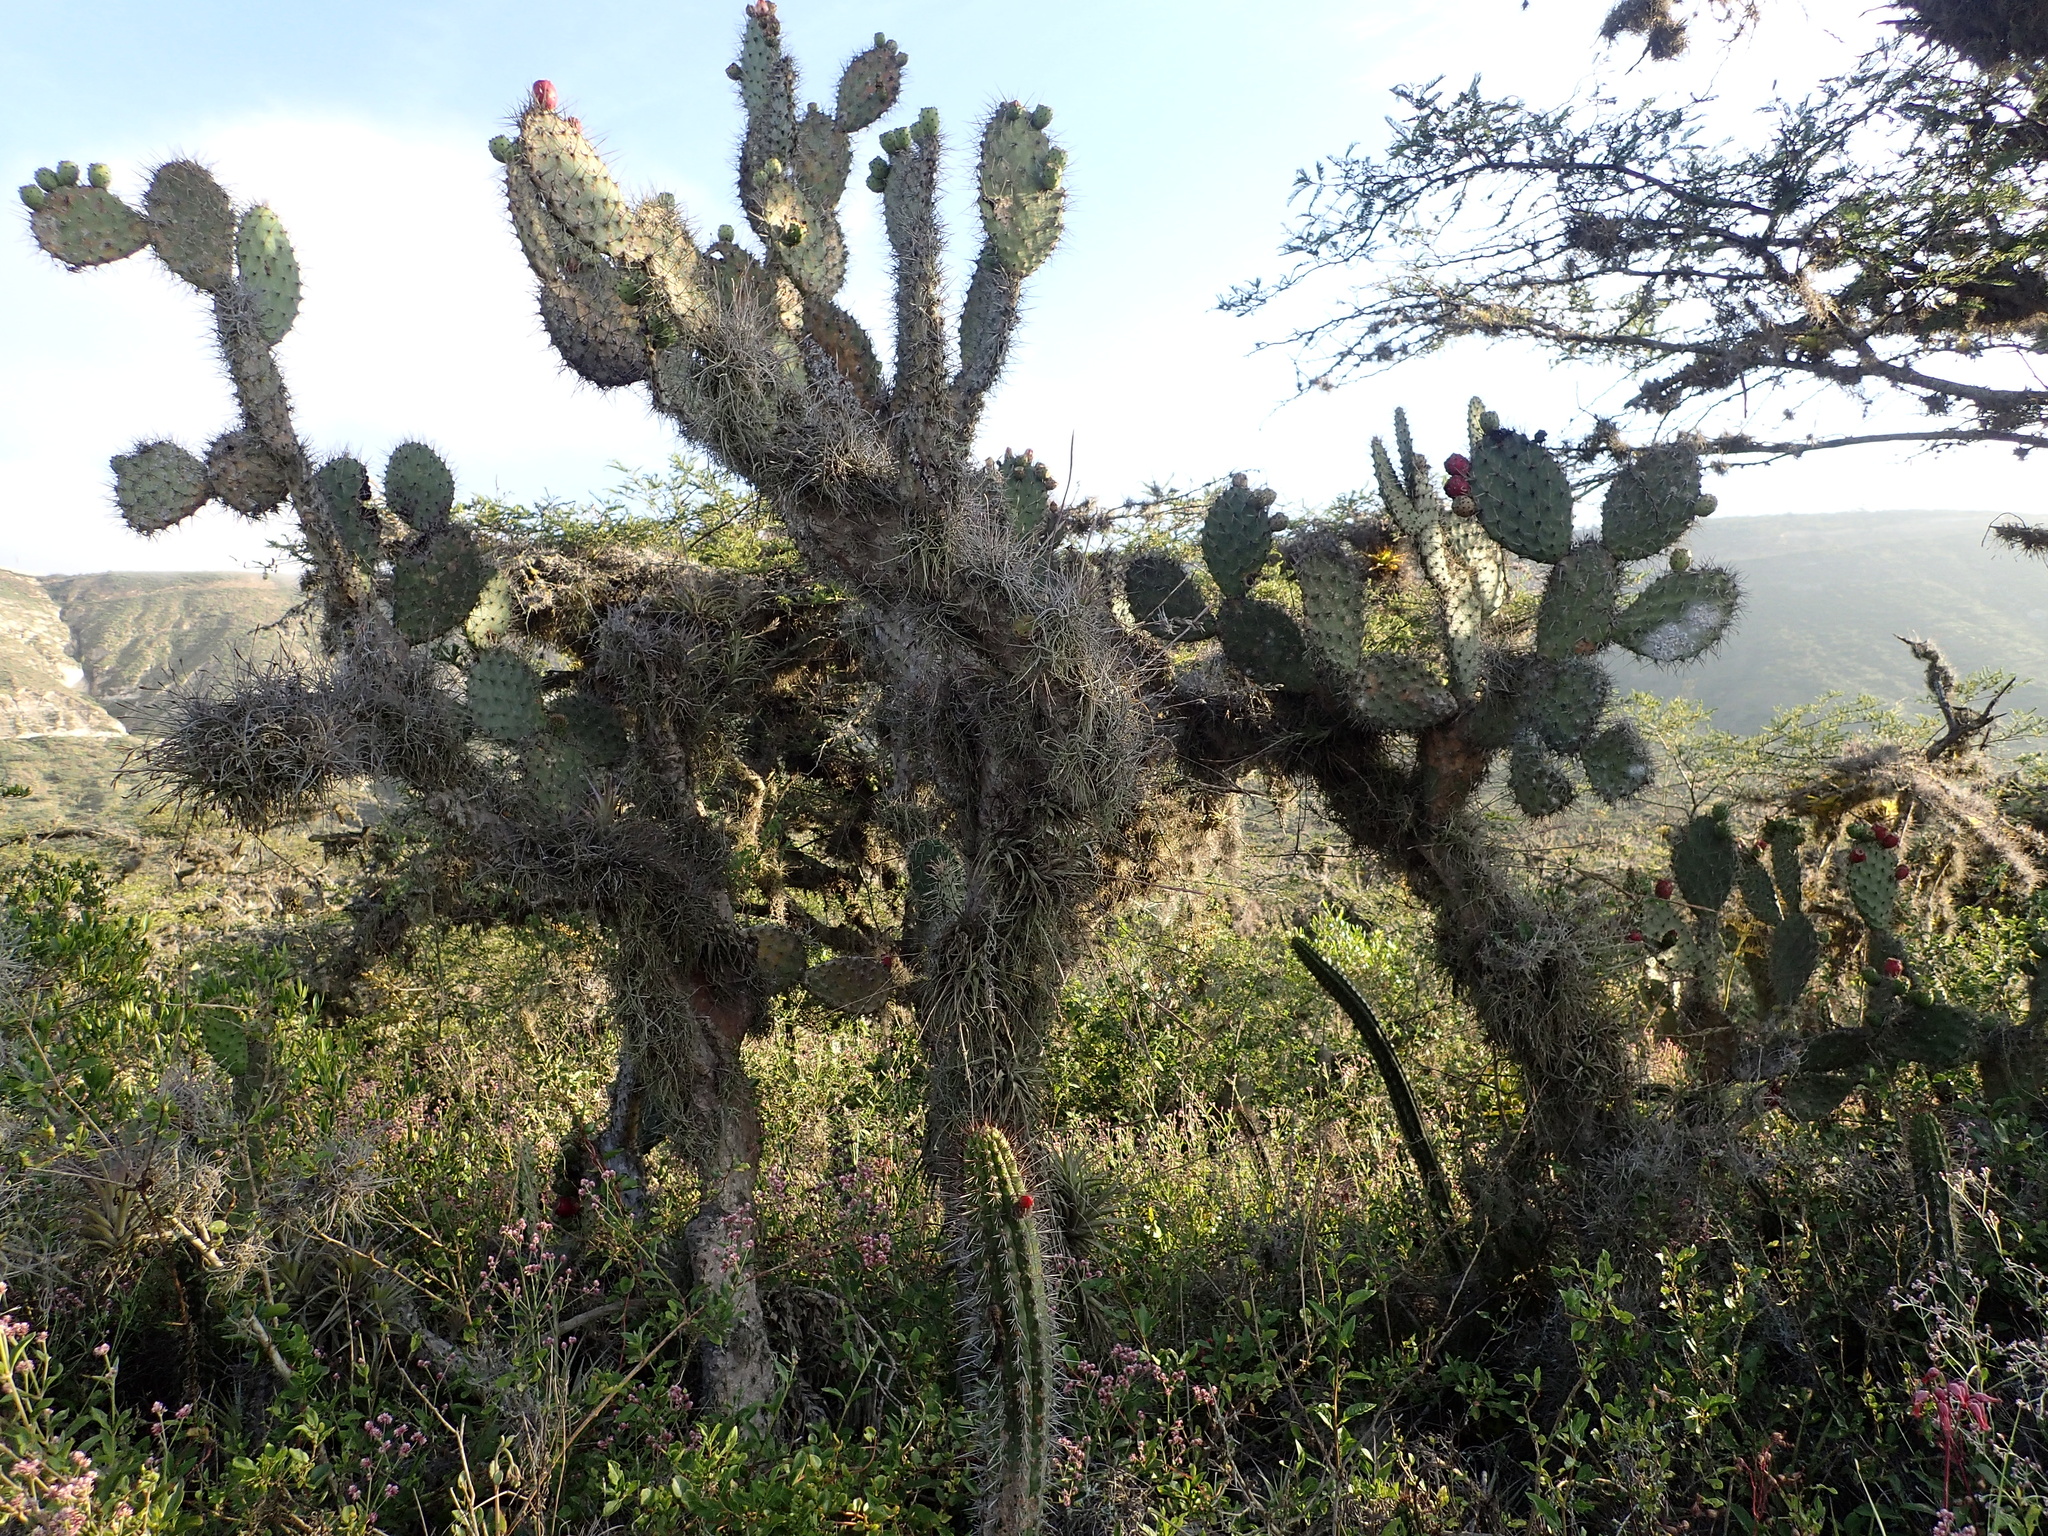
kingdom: Plantae
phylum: Tracheophyta
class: Magnoliopsida
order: Caryophyllales
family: Cactaceae
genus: Opuntia
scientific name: Opuntia soederstromiana
